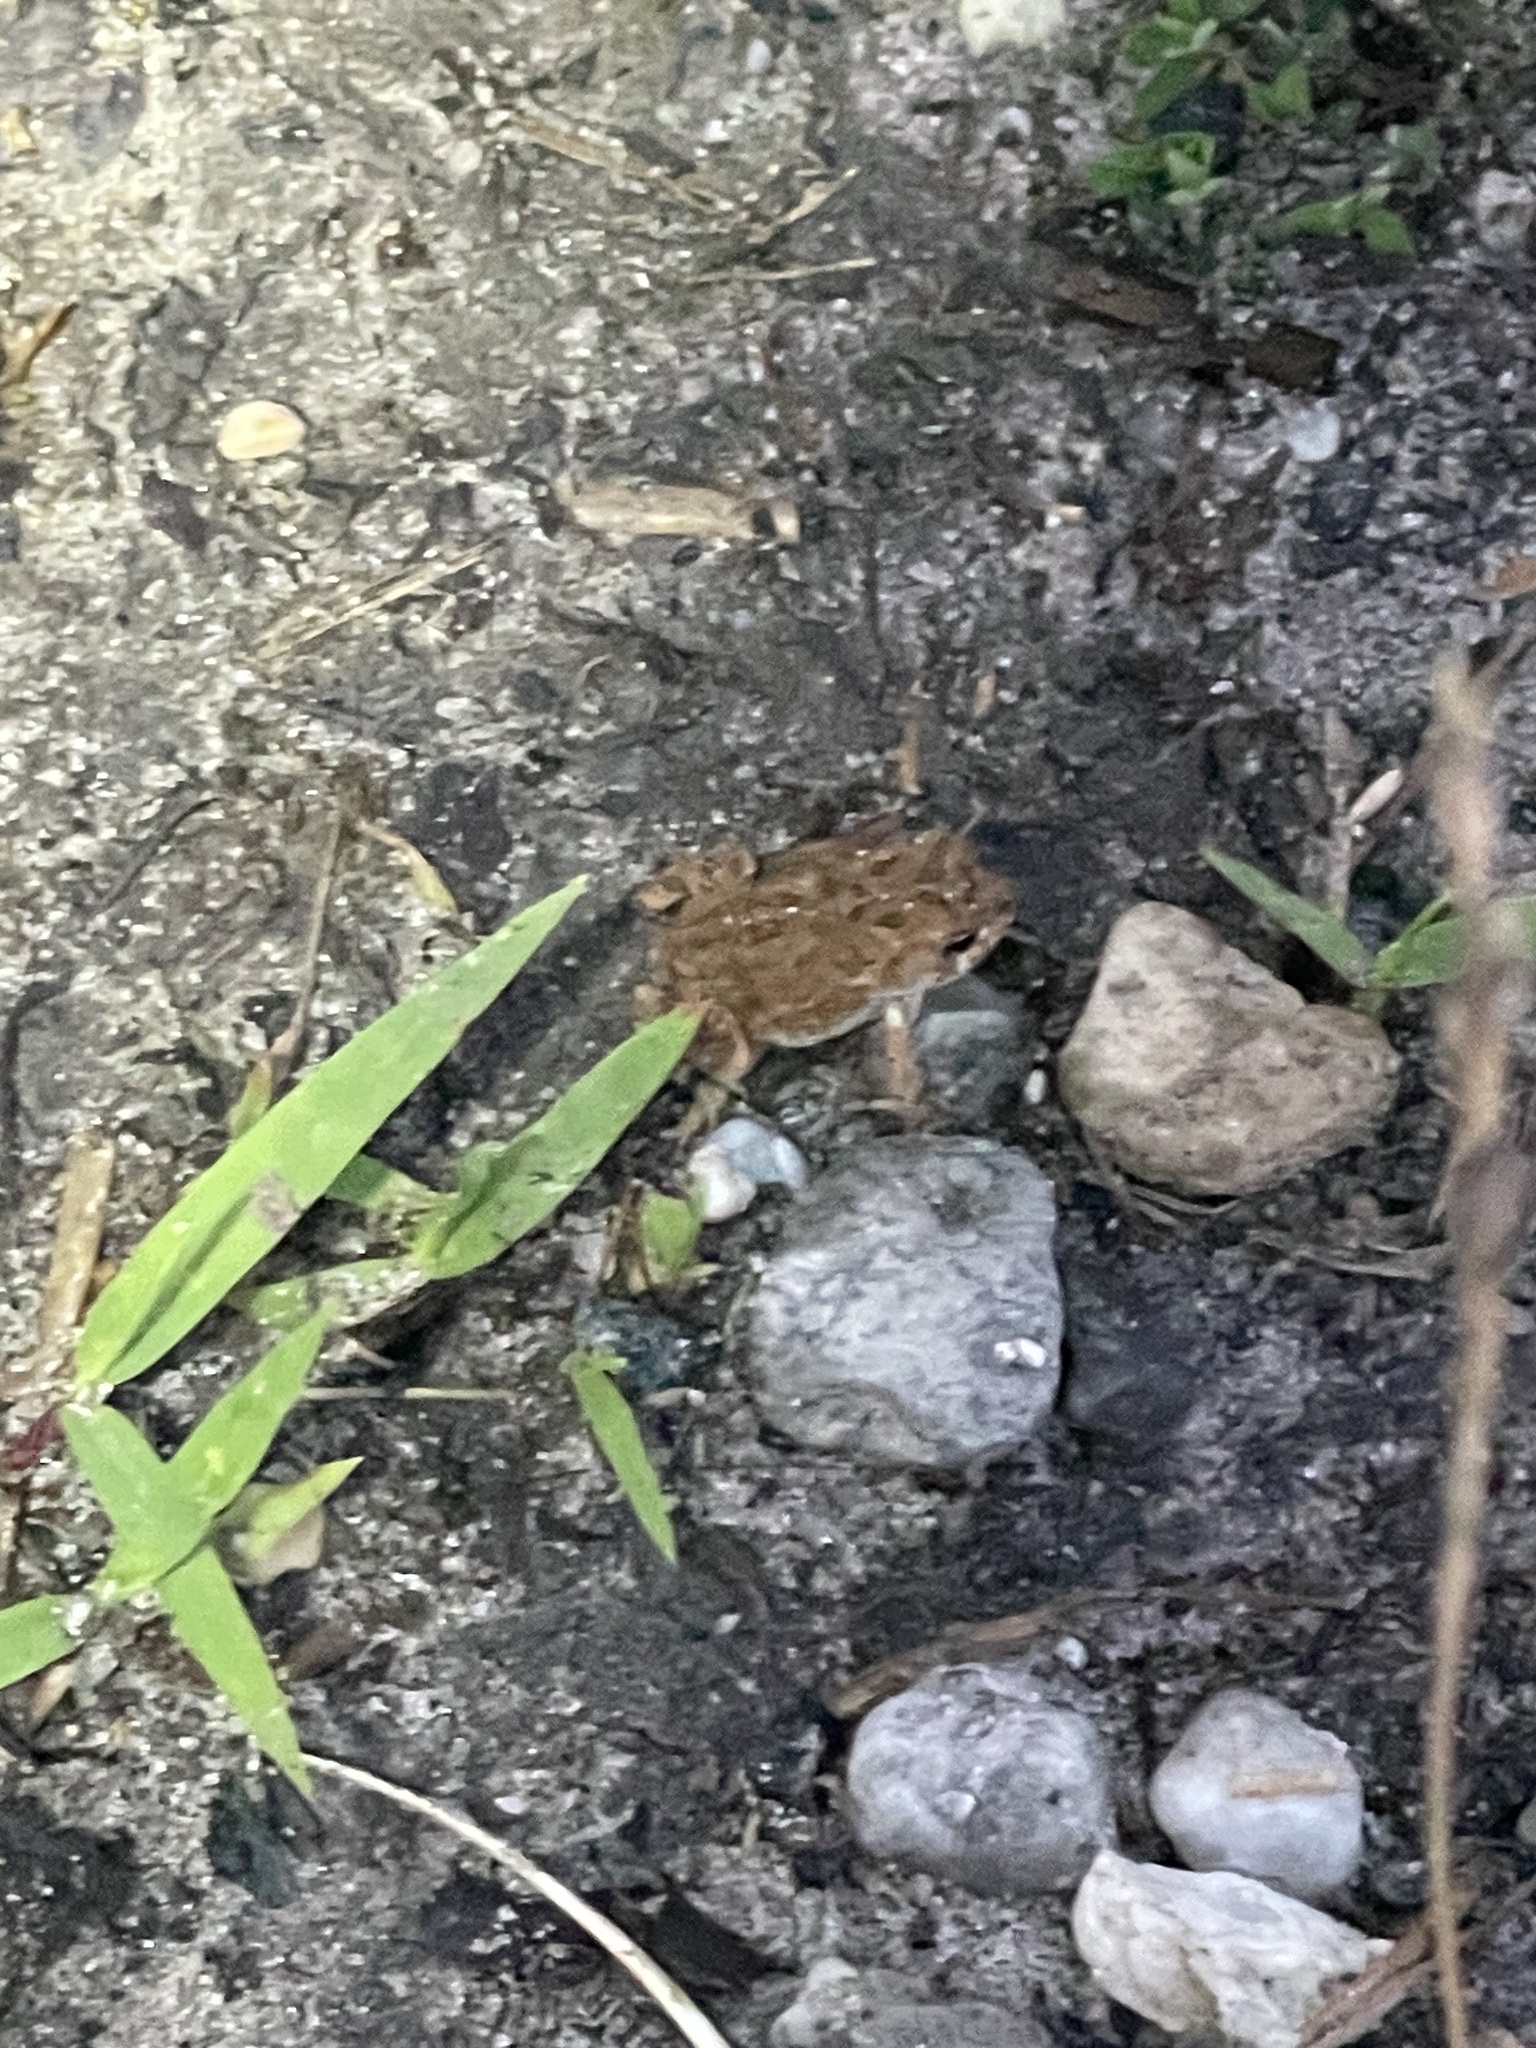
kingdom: Animalia
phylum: Chordata
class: Amphibia
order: Anura
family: Bufonidae
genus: Anaxyrus
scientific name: Anaxyrus fowleri
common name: Fowler's toad
